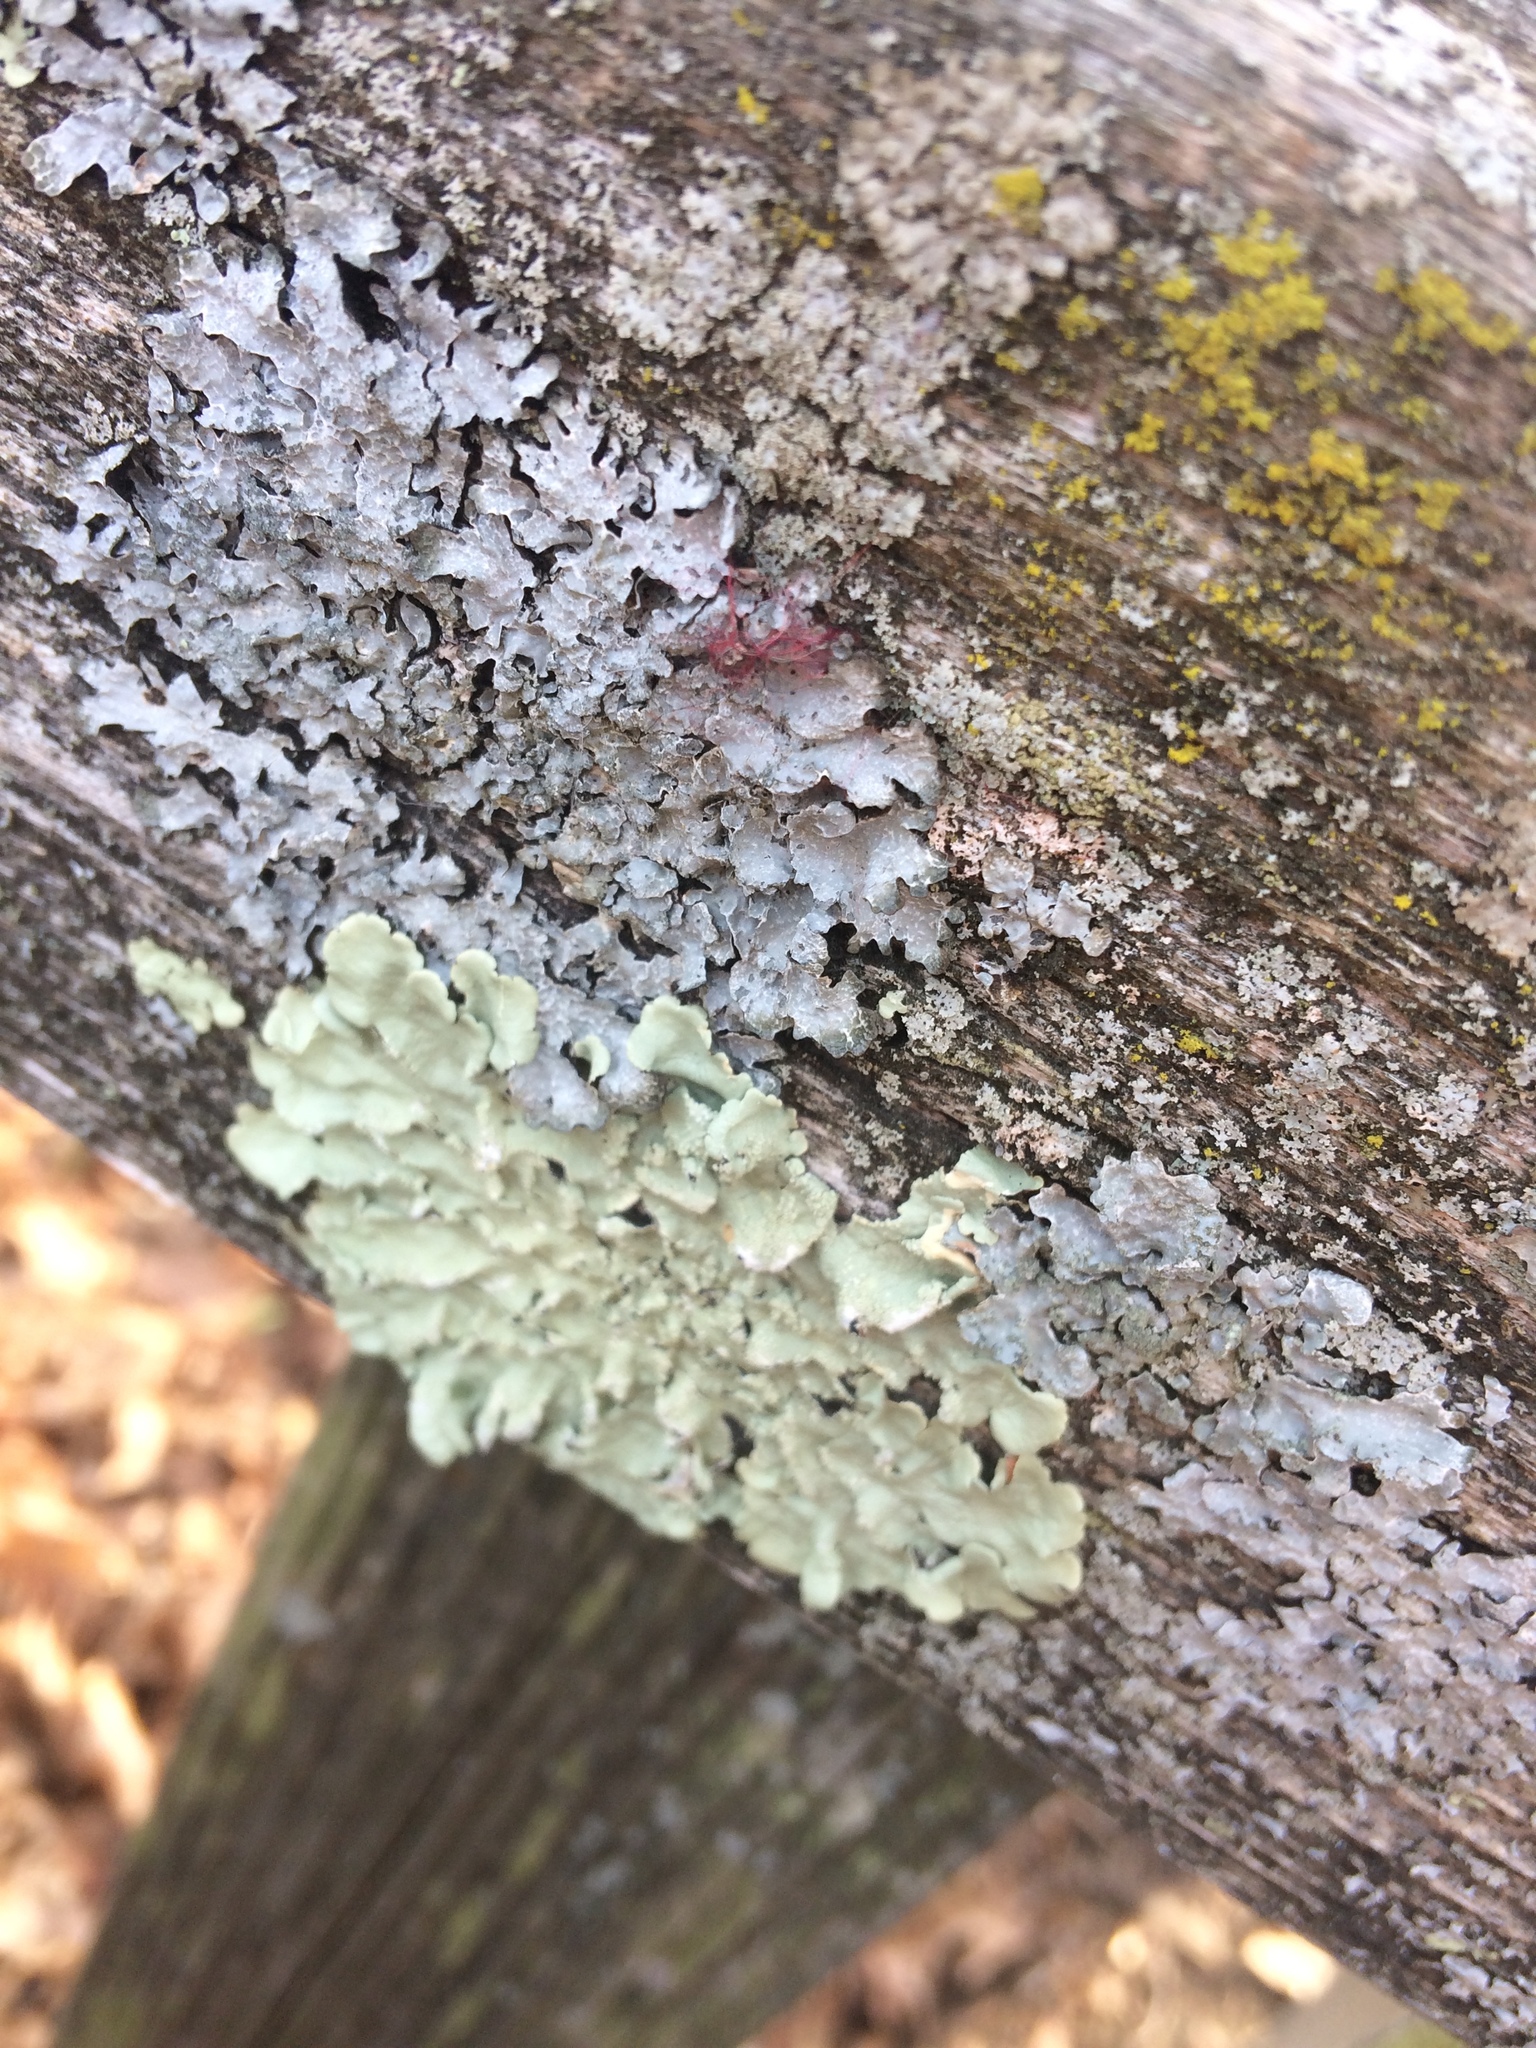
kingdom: Fungi
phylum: Ascomycota
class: Lecanoromycetes
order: Lecanorales
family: Parmeliaceae
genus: Flavoparmelia
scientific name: Flavoparmelia caperata
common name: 40-mile per hour lichen
